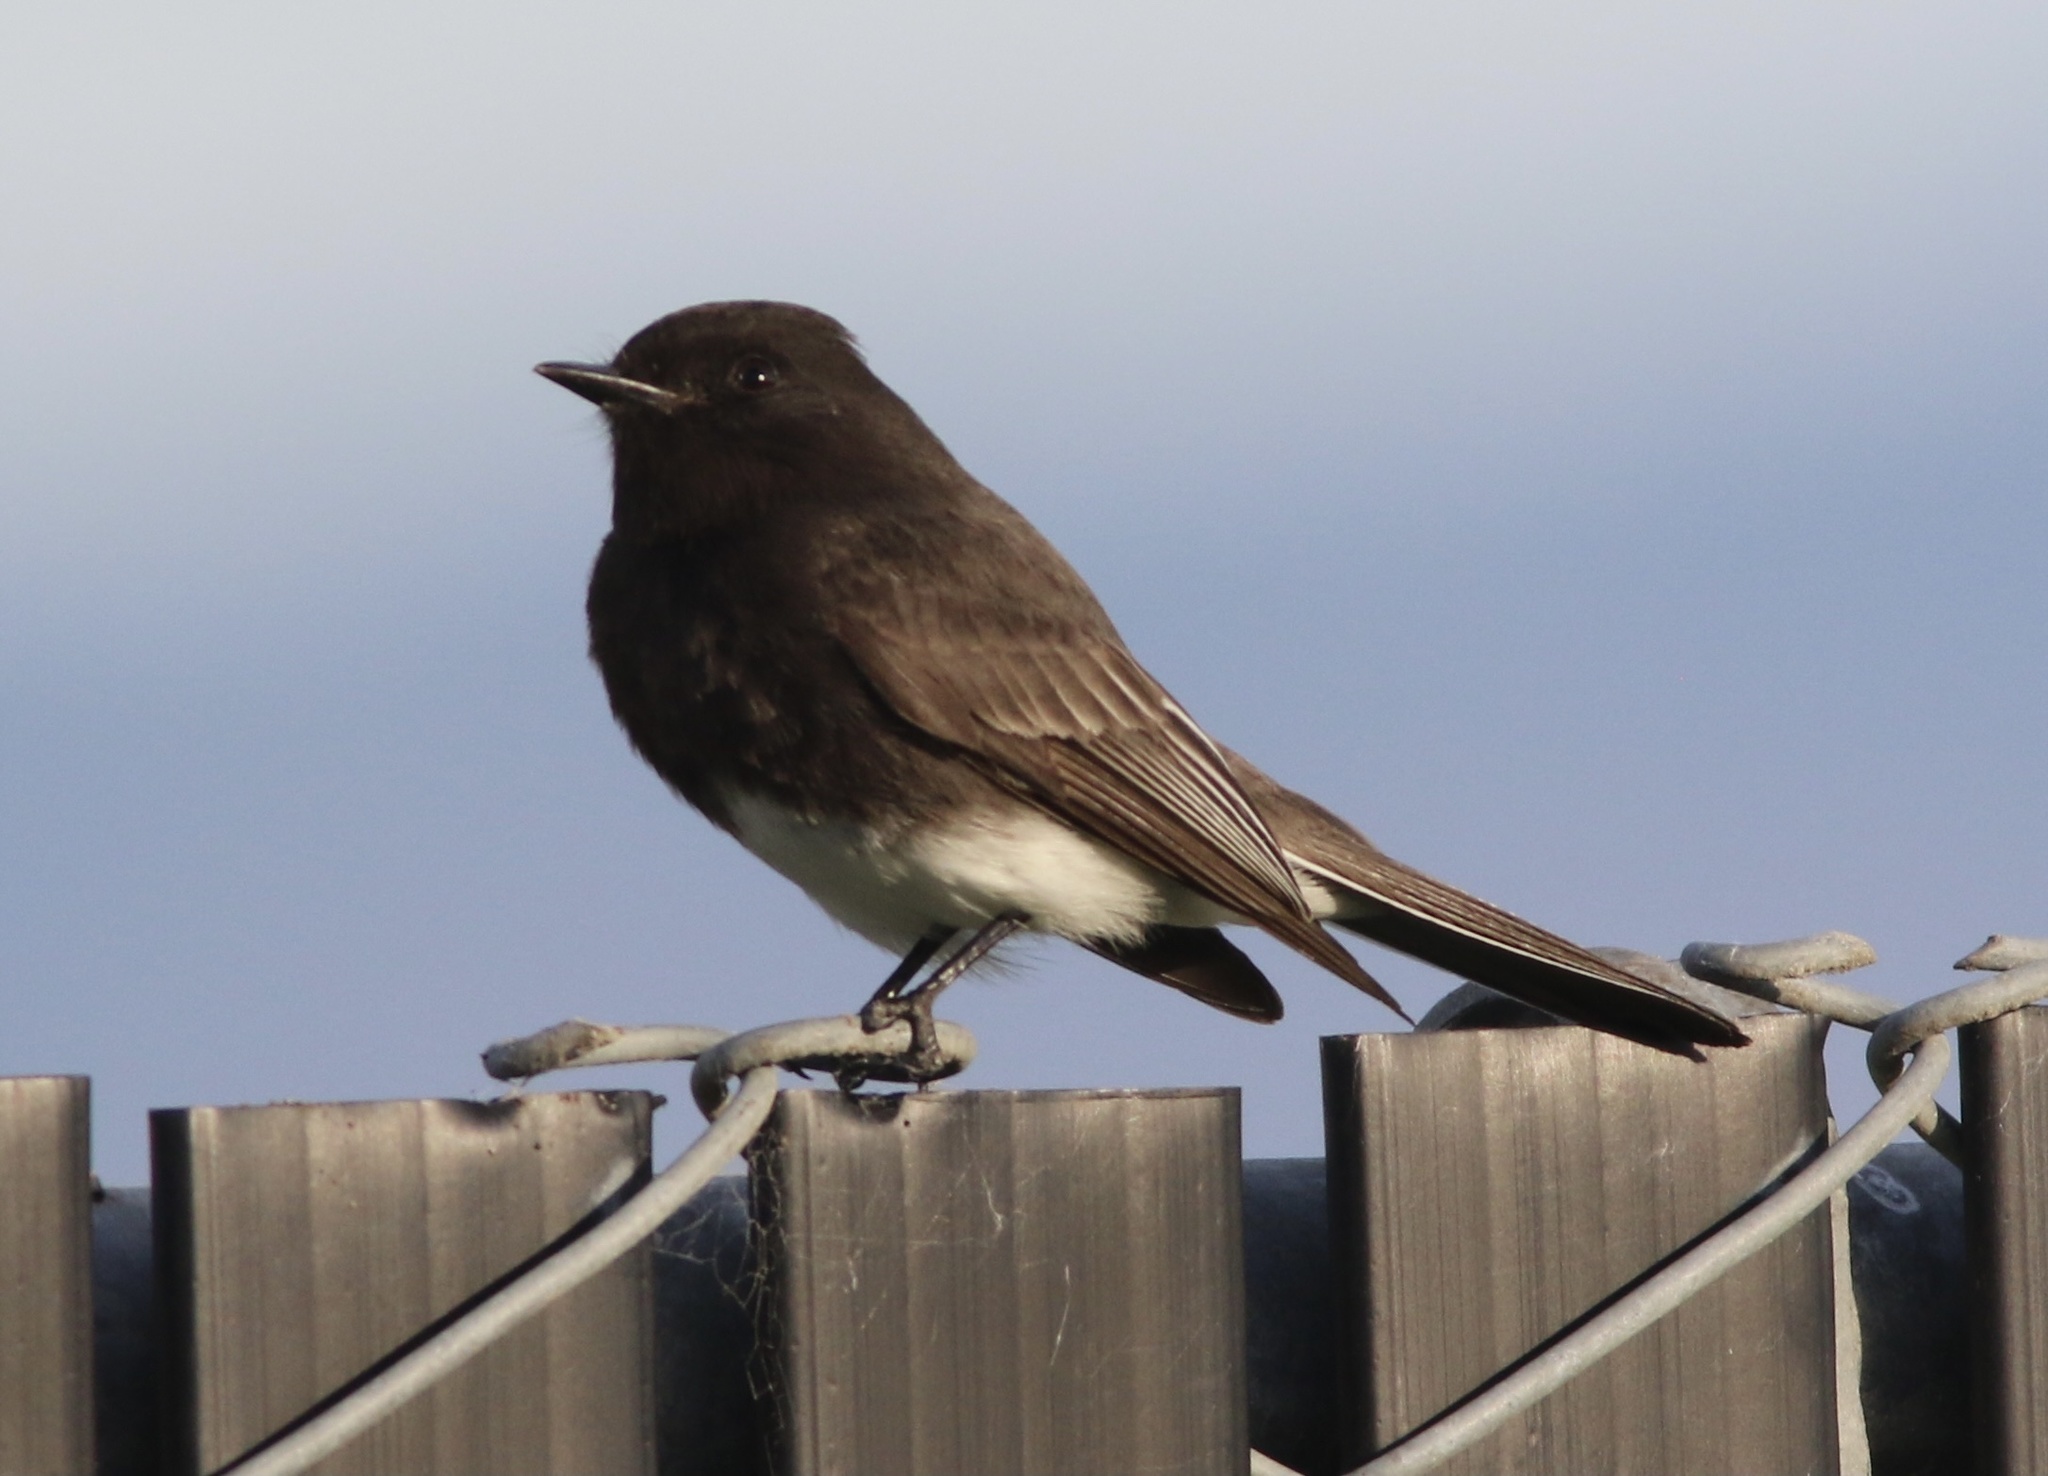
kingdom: Animalia
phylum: Chordata
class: Aves
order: Passeriformes
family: Tyrannidae
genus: Sayornis
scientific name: Sayornis nigricans
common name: Black phoebe
